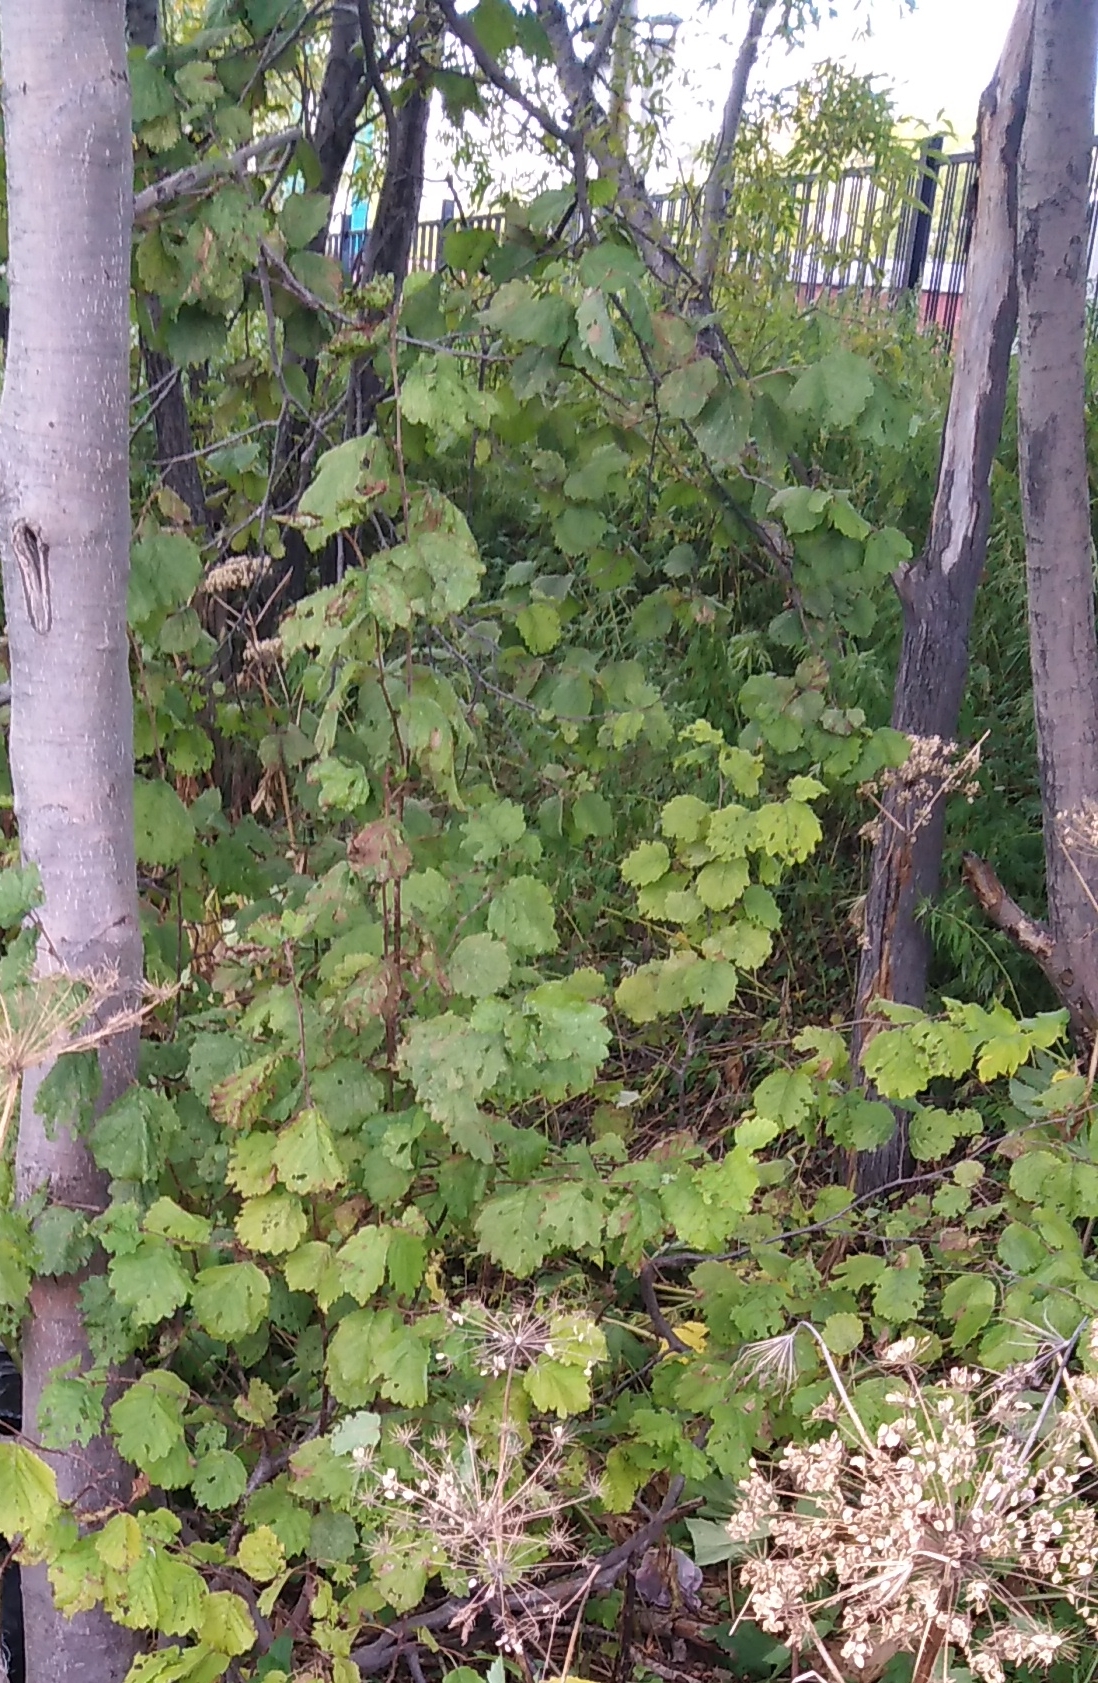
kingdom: Plantae
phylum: Tracheophyta
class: Magnoliopsida
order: Fagales
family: Betulaceae
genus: Alnus
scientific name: Alnus hirsuta
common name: Manchurian alder
